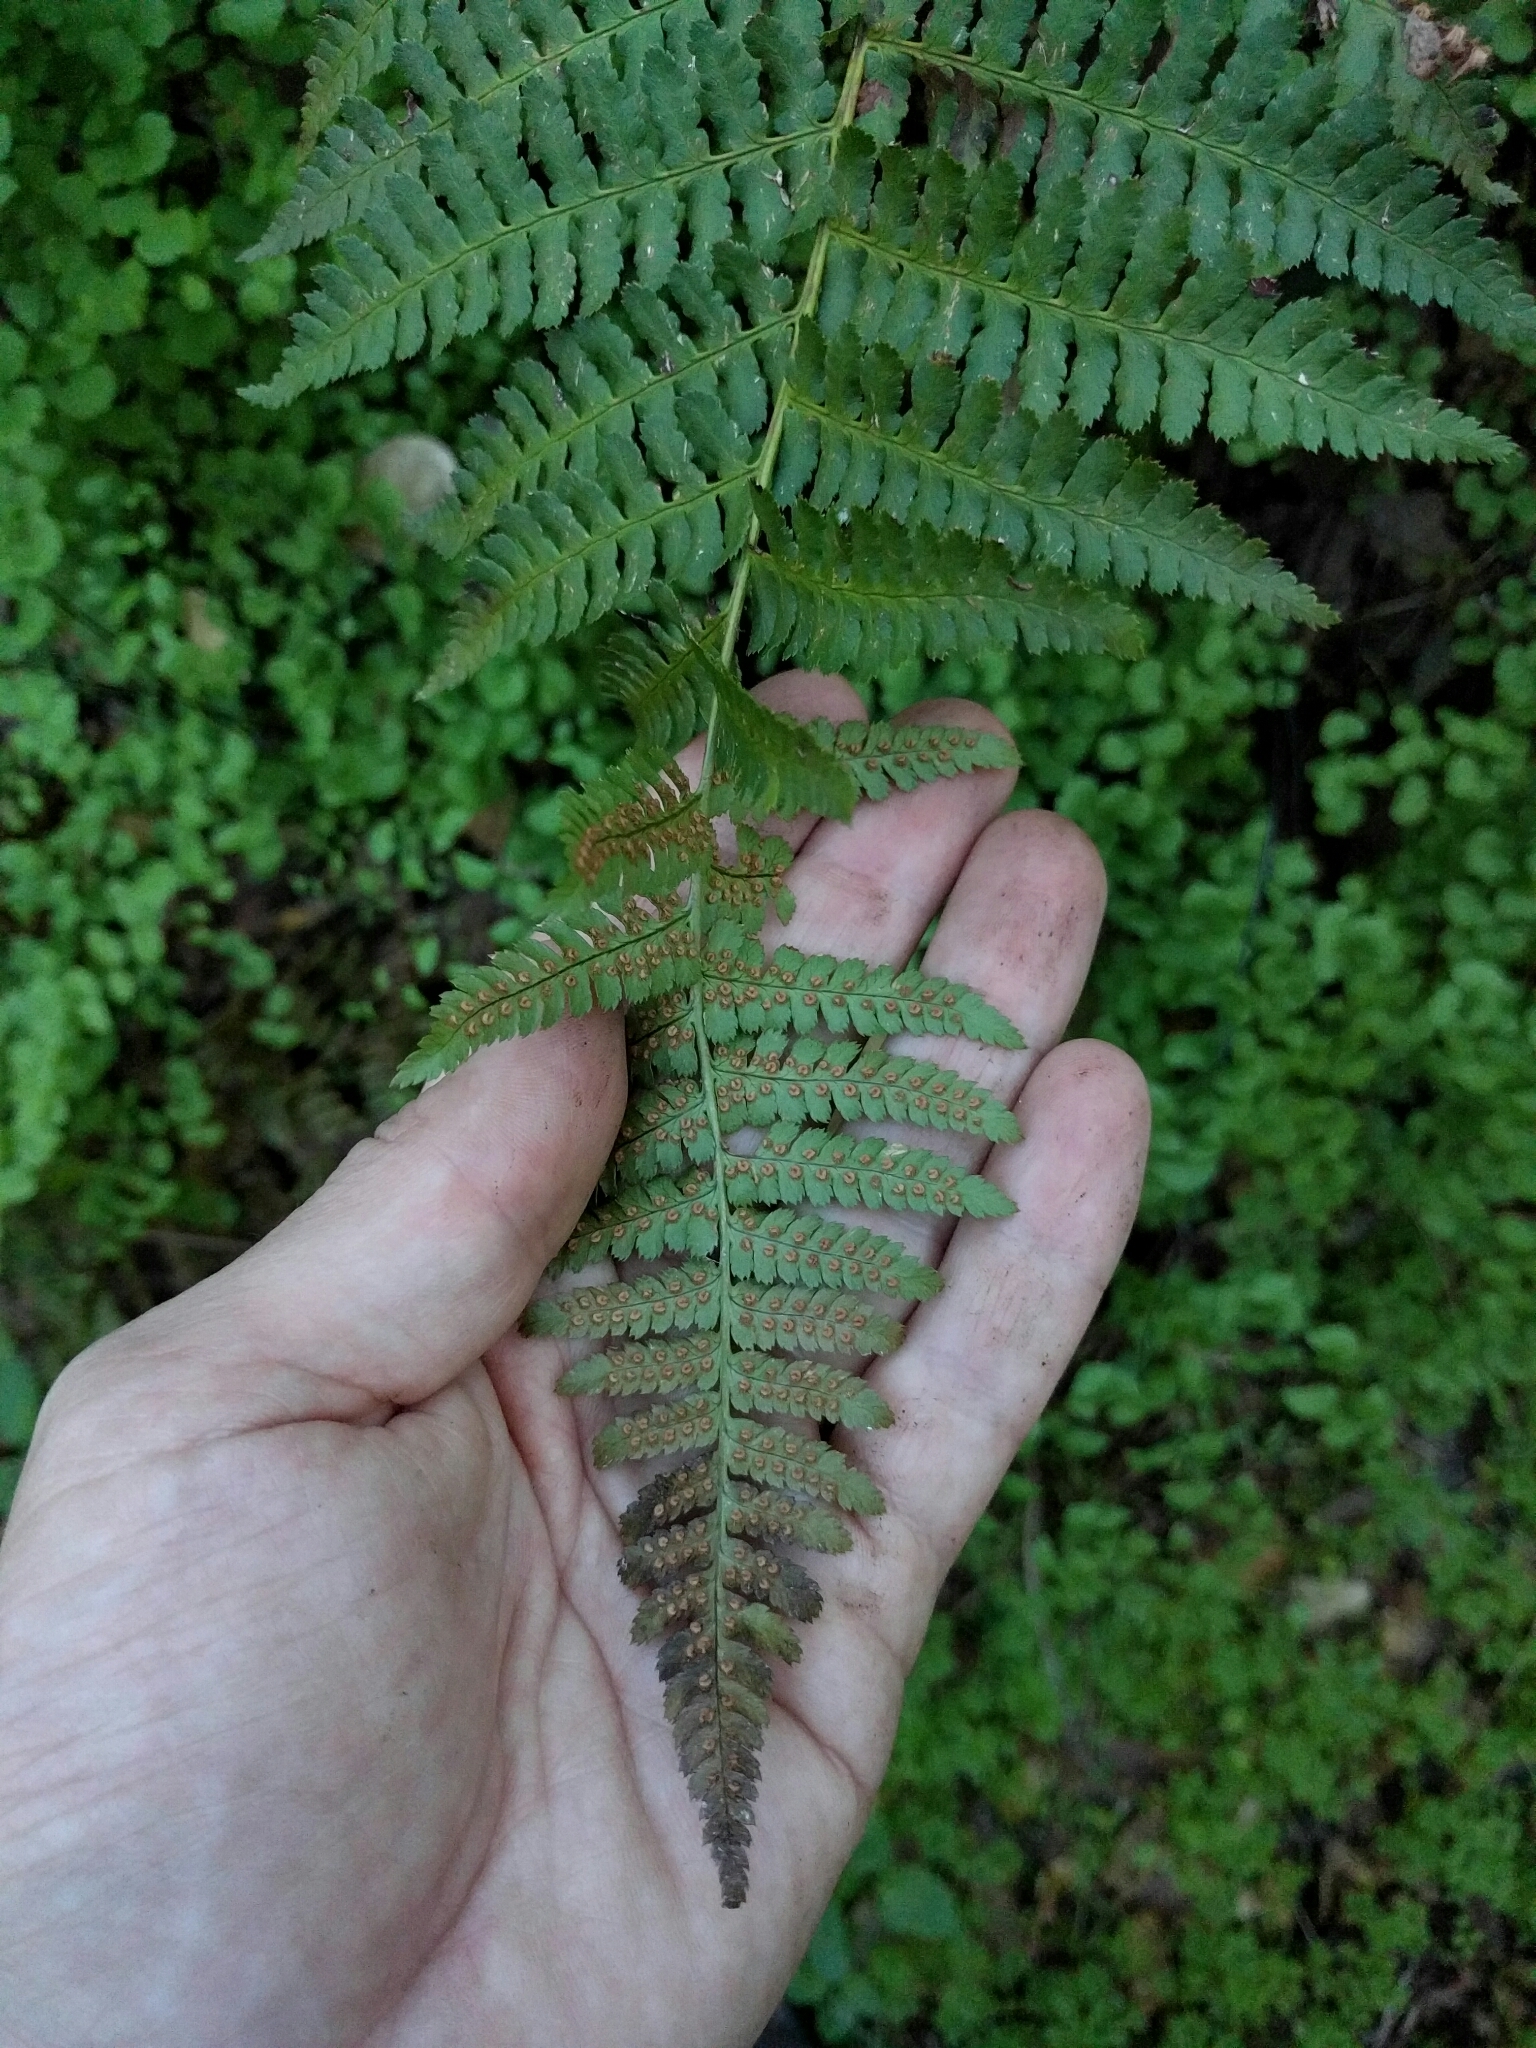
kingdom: Plantae
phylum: Tracheophyta
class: Polypodiopsida
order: Polypodiales
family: Dryopteridaceae
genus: Dryopteris
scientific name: Dryopteris arguta
